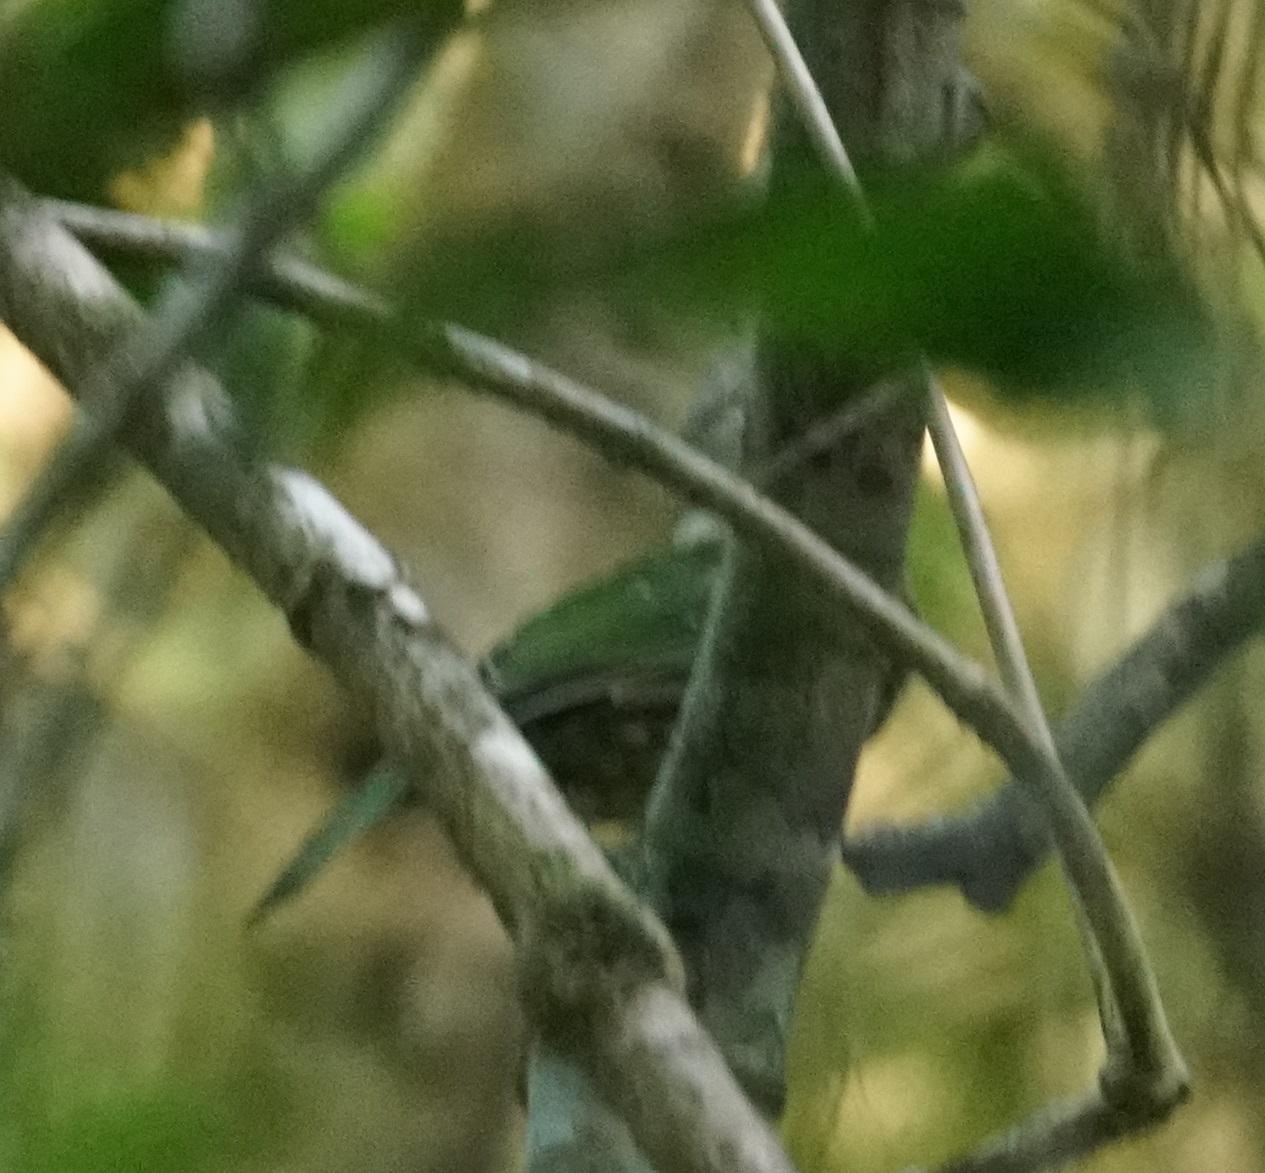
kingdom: Animalia
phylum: Chordata
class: Aves
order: Passeriformes
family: Ptilonorhynchidae
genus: Ailuroedus
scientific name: Ailuroedus maculosus
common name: Spotted catbird
